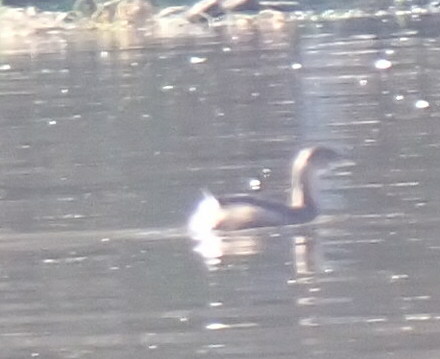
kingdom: Animalia
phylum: Chordata
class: Aves
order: Podicipediformes
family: Podicipedidae
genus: Podilymbus
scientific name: Podilymbus podiceps
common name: Pied-billed grebe
